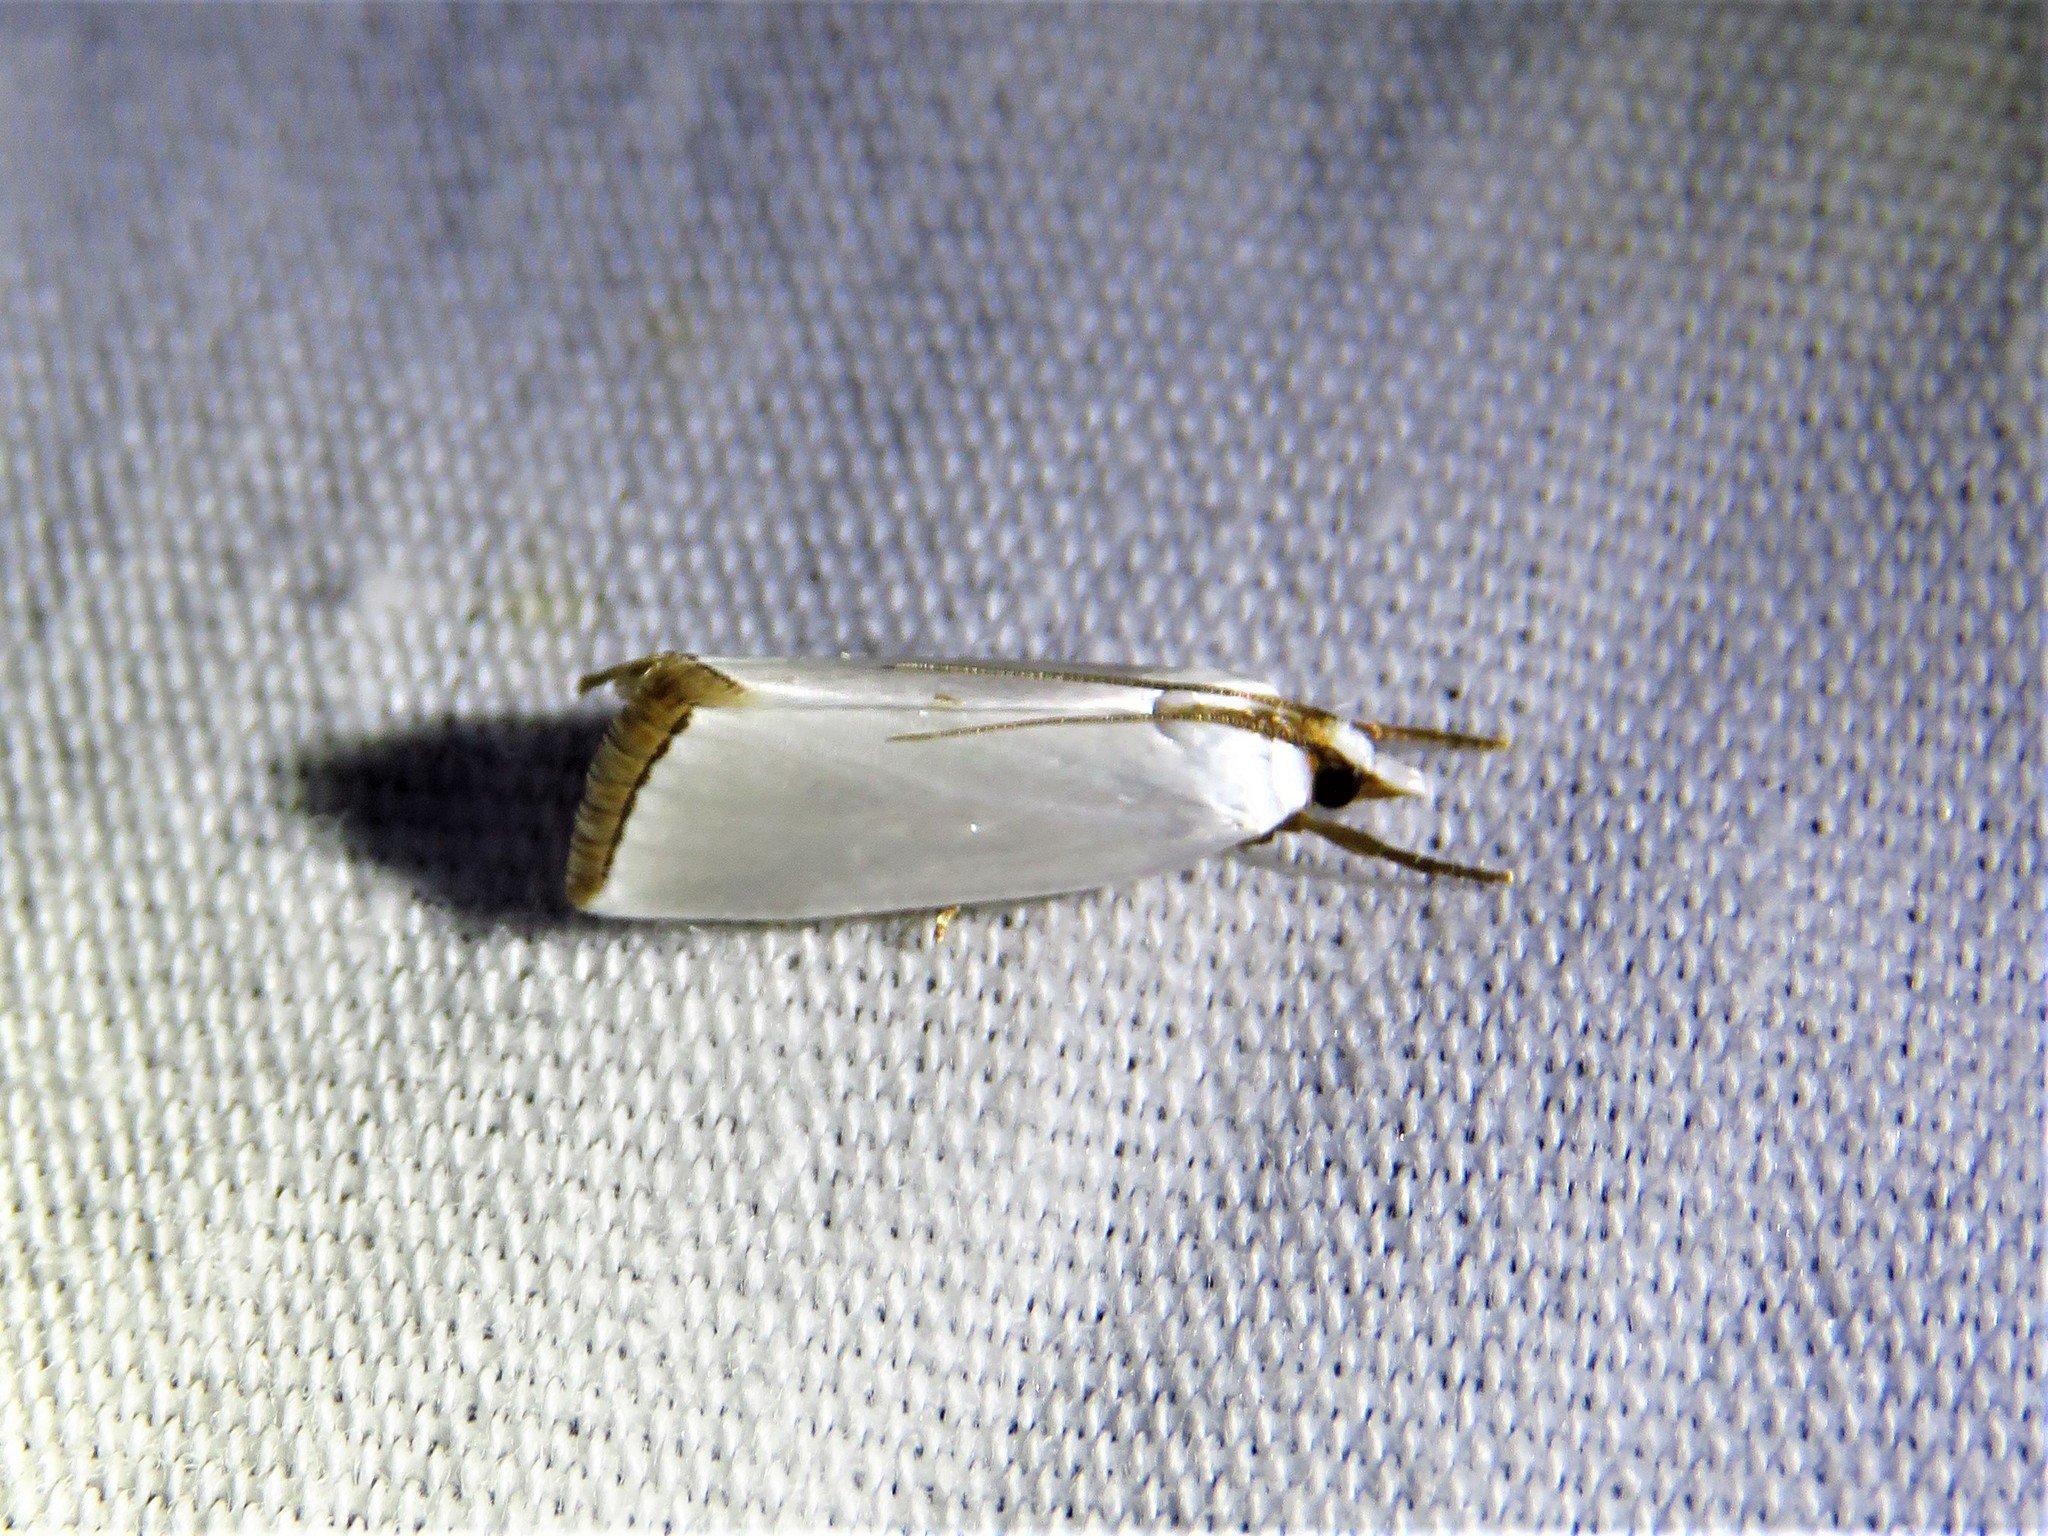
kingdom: Animalia
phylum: Arthropoda
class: Insecta
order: Lepidoptera
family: Crambidae
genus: Argyria
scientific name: Argyria nivalis
